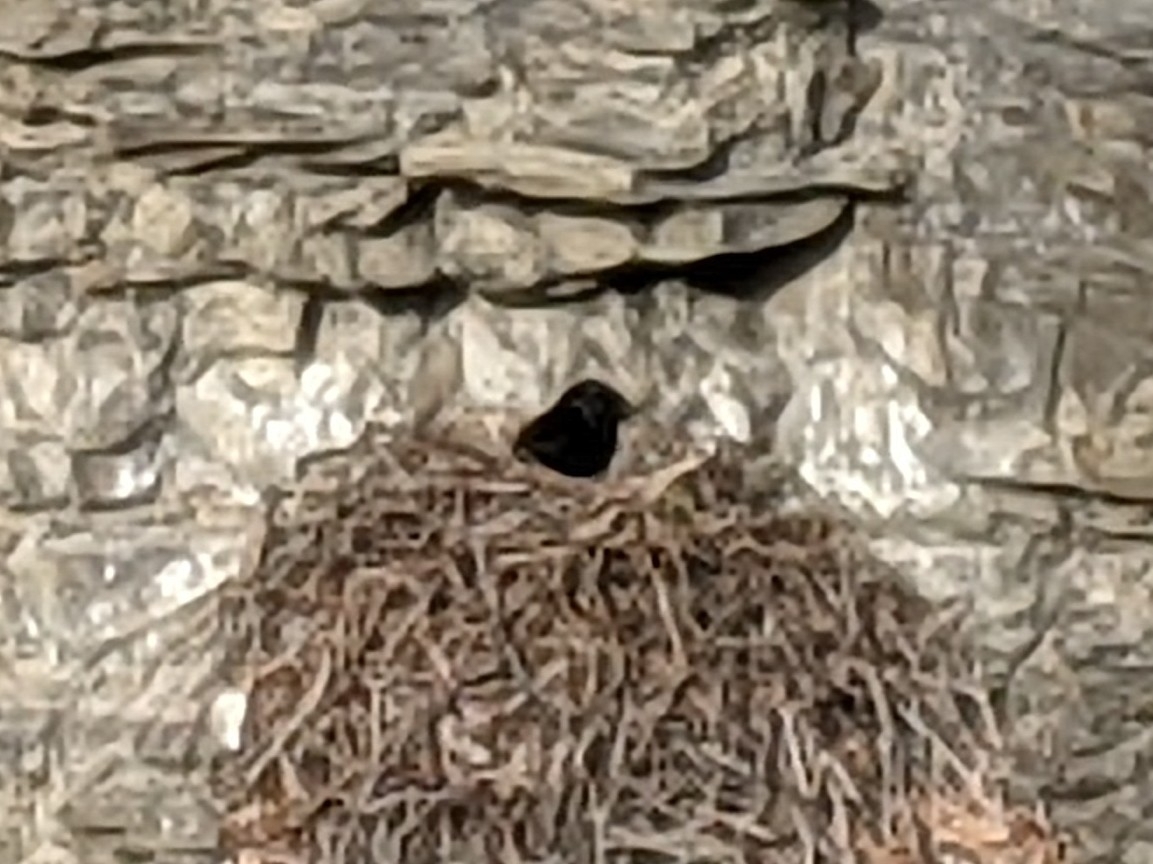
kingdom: Animalia
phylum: Chordata
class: Aves
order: Passeriformes
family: Corvidae
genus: Corvus
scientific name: Corvus corax
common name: Common raven
